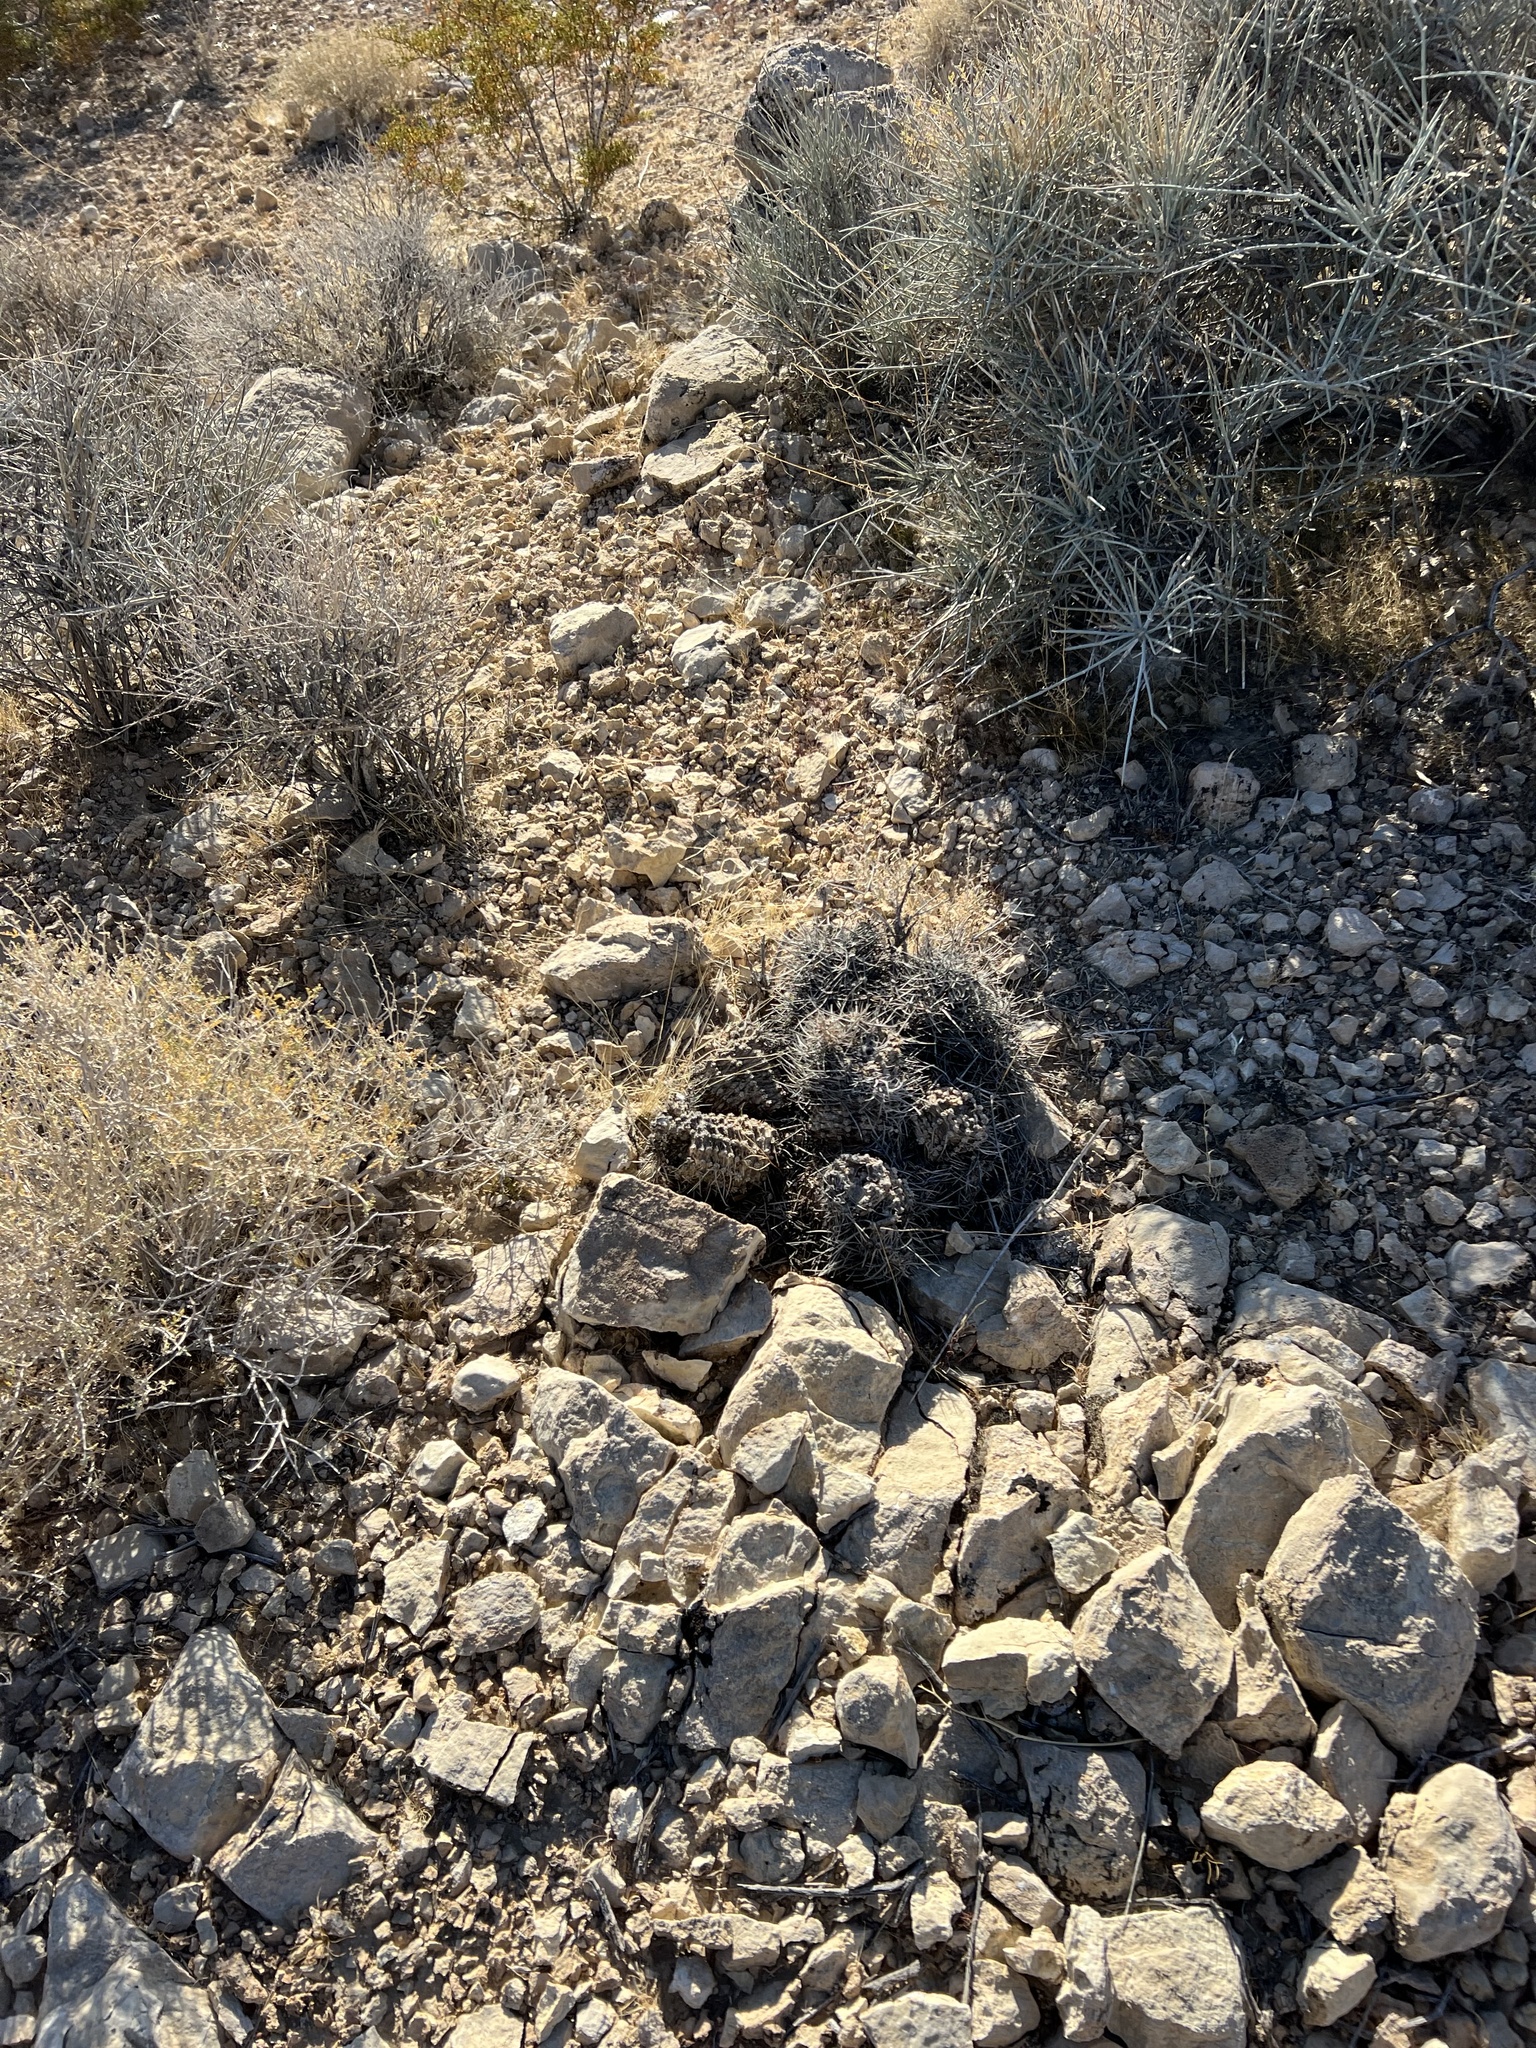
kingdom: Plantae
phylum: Tracheophyta
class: Magnoliopsida
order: Caryophyllales
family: Cactaceae
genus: Echinocereus
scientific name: Echinocereus engelmannii
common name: Engelmann's hedgehog cactus
